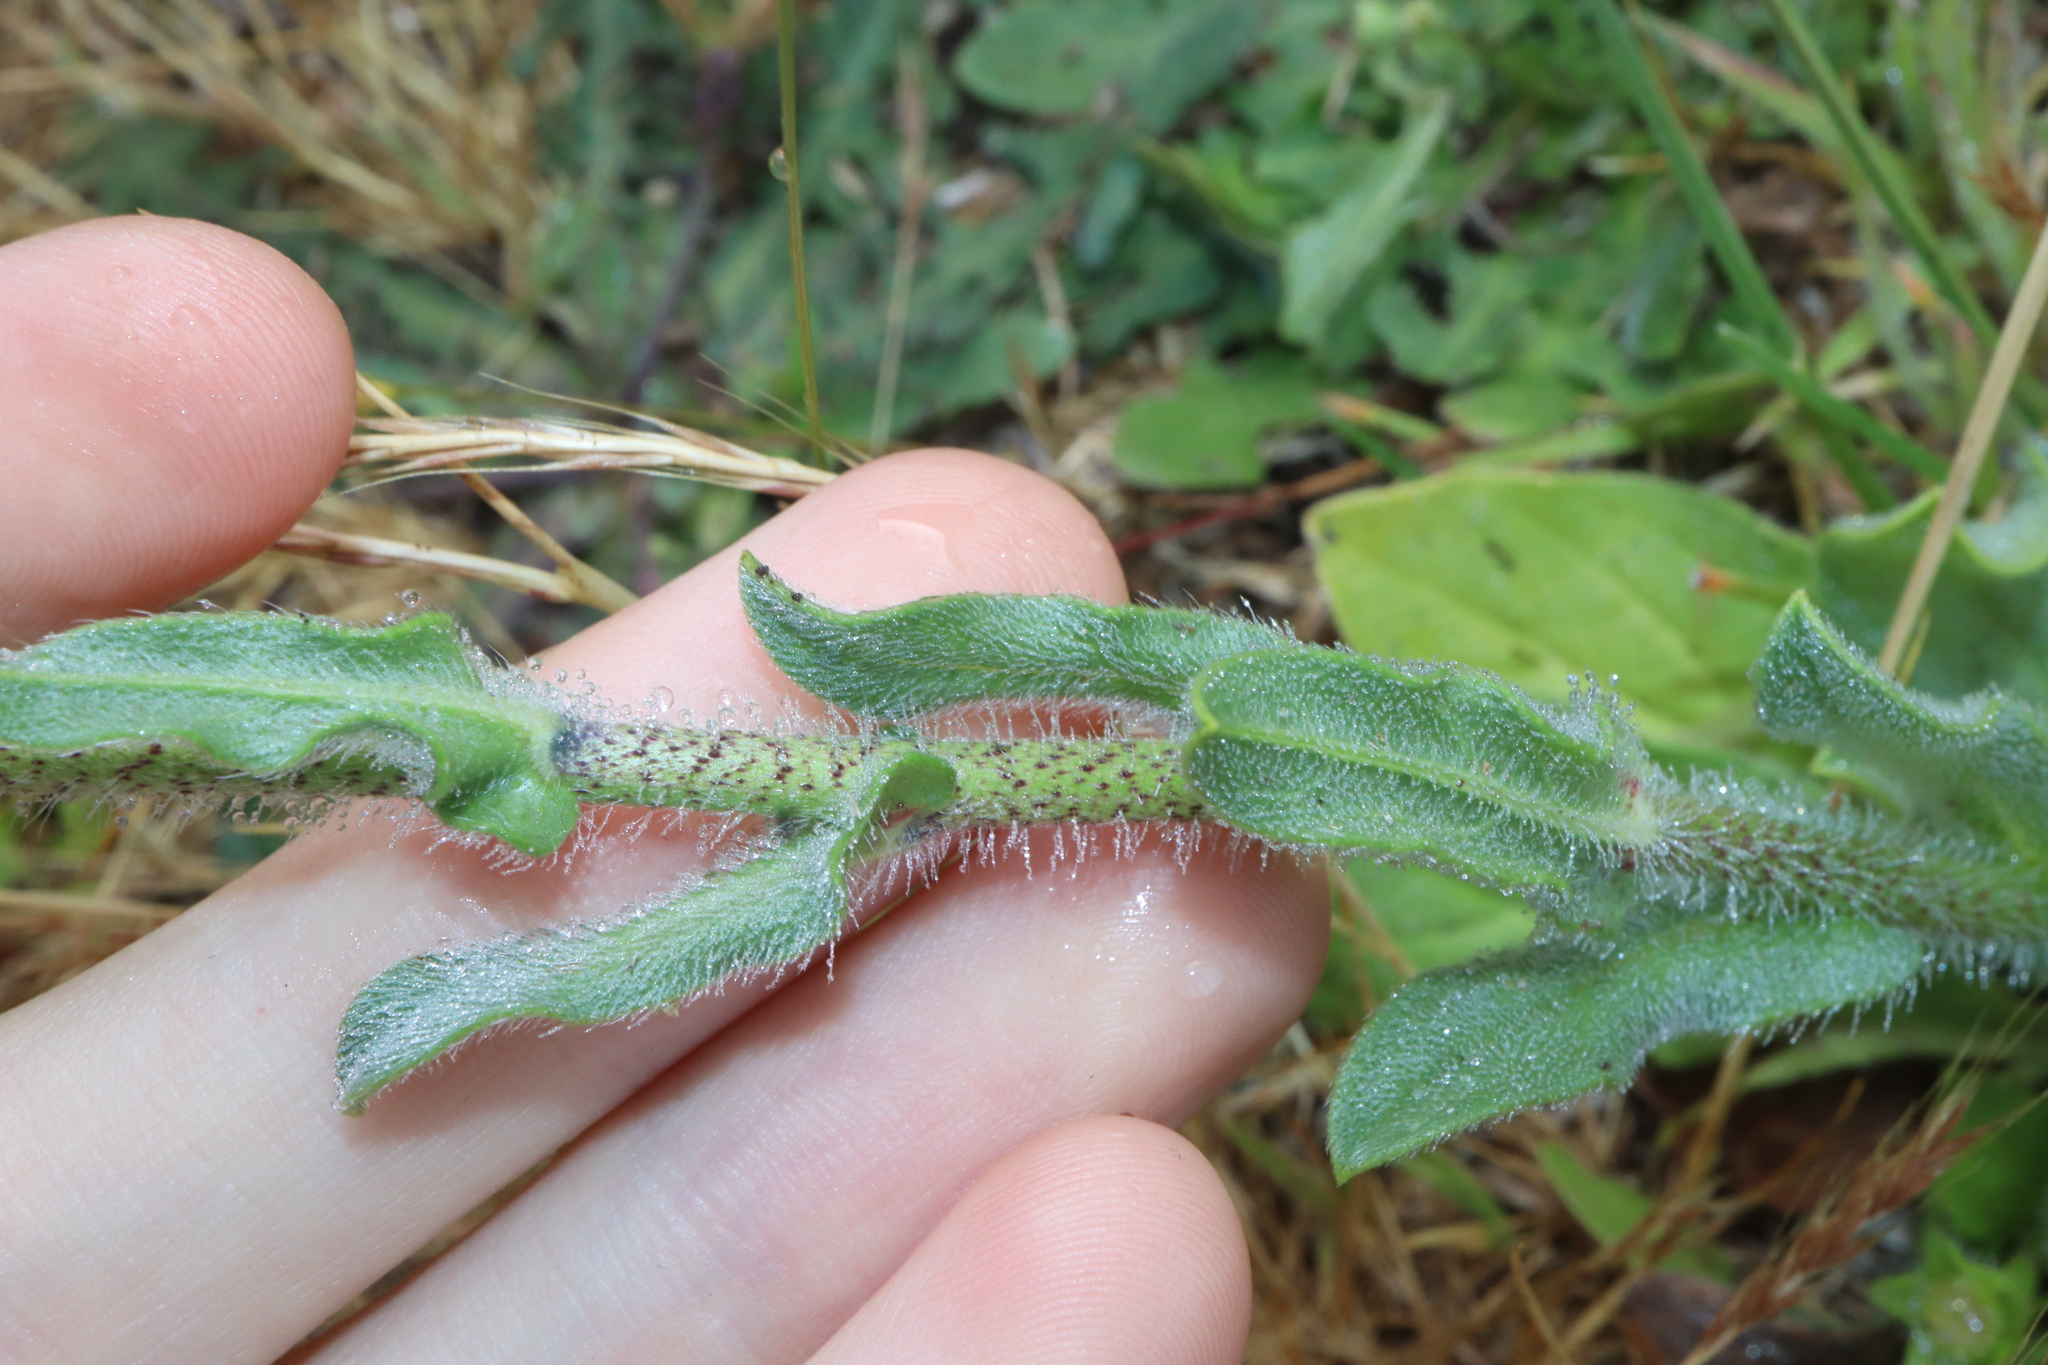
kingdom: Plantae
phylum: Tracheophyta
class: Magnoliopsida
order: Boraginales
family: Boraginaceae
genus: Echium
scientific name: Echium plantagineum
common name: Purple viper's-bugloss
